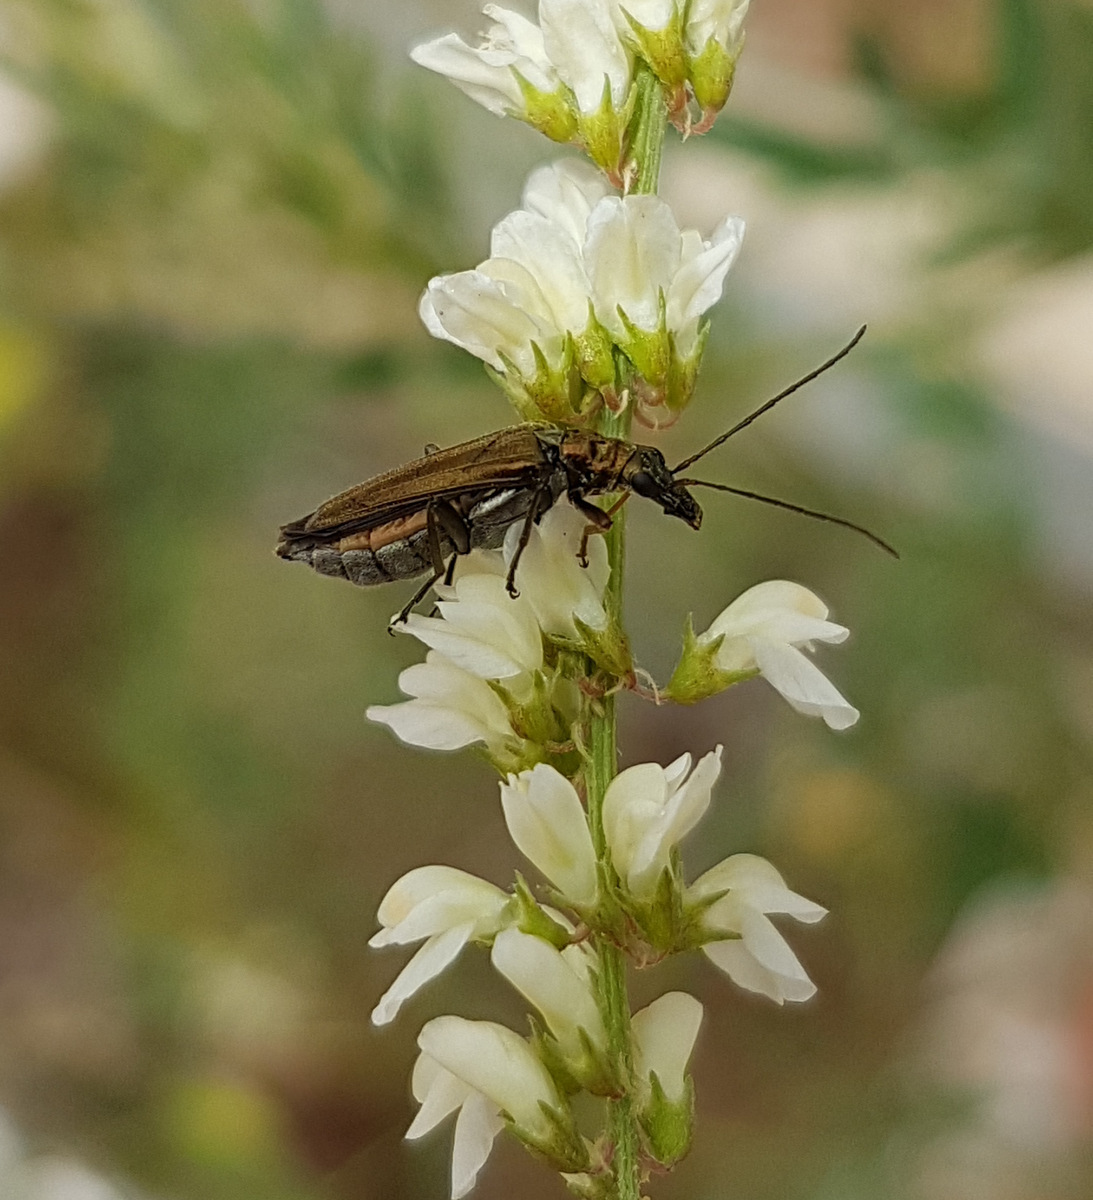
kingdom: Animalia
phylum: Arthropoda
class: Insecta
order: Coleoptera
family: Oedemeridae
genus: Oedemera
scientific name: Oedemera flavipes
